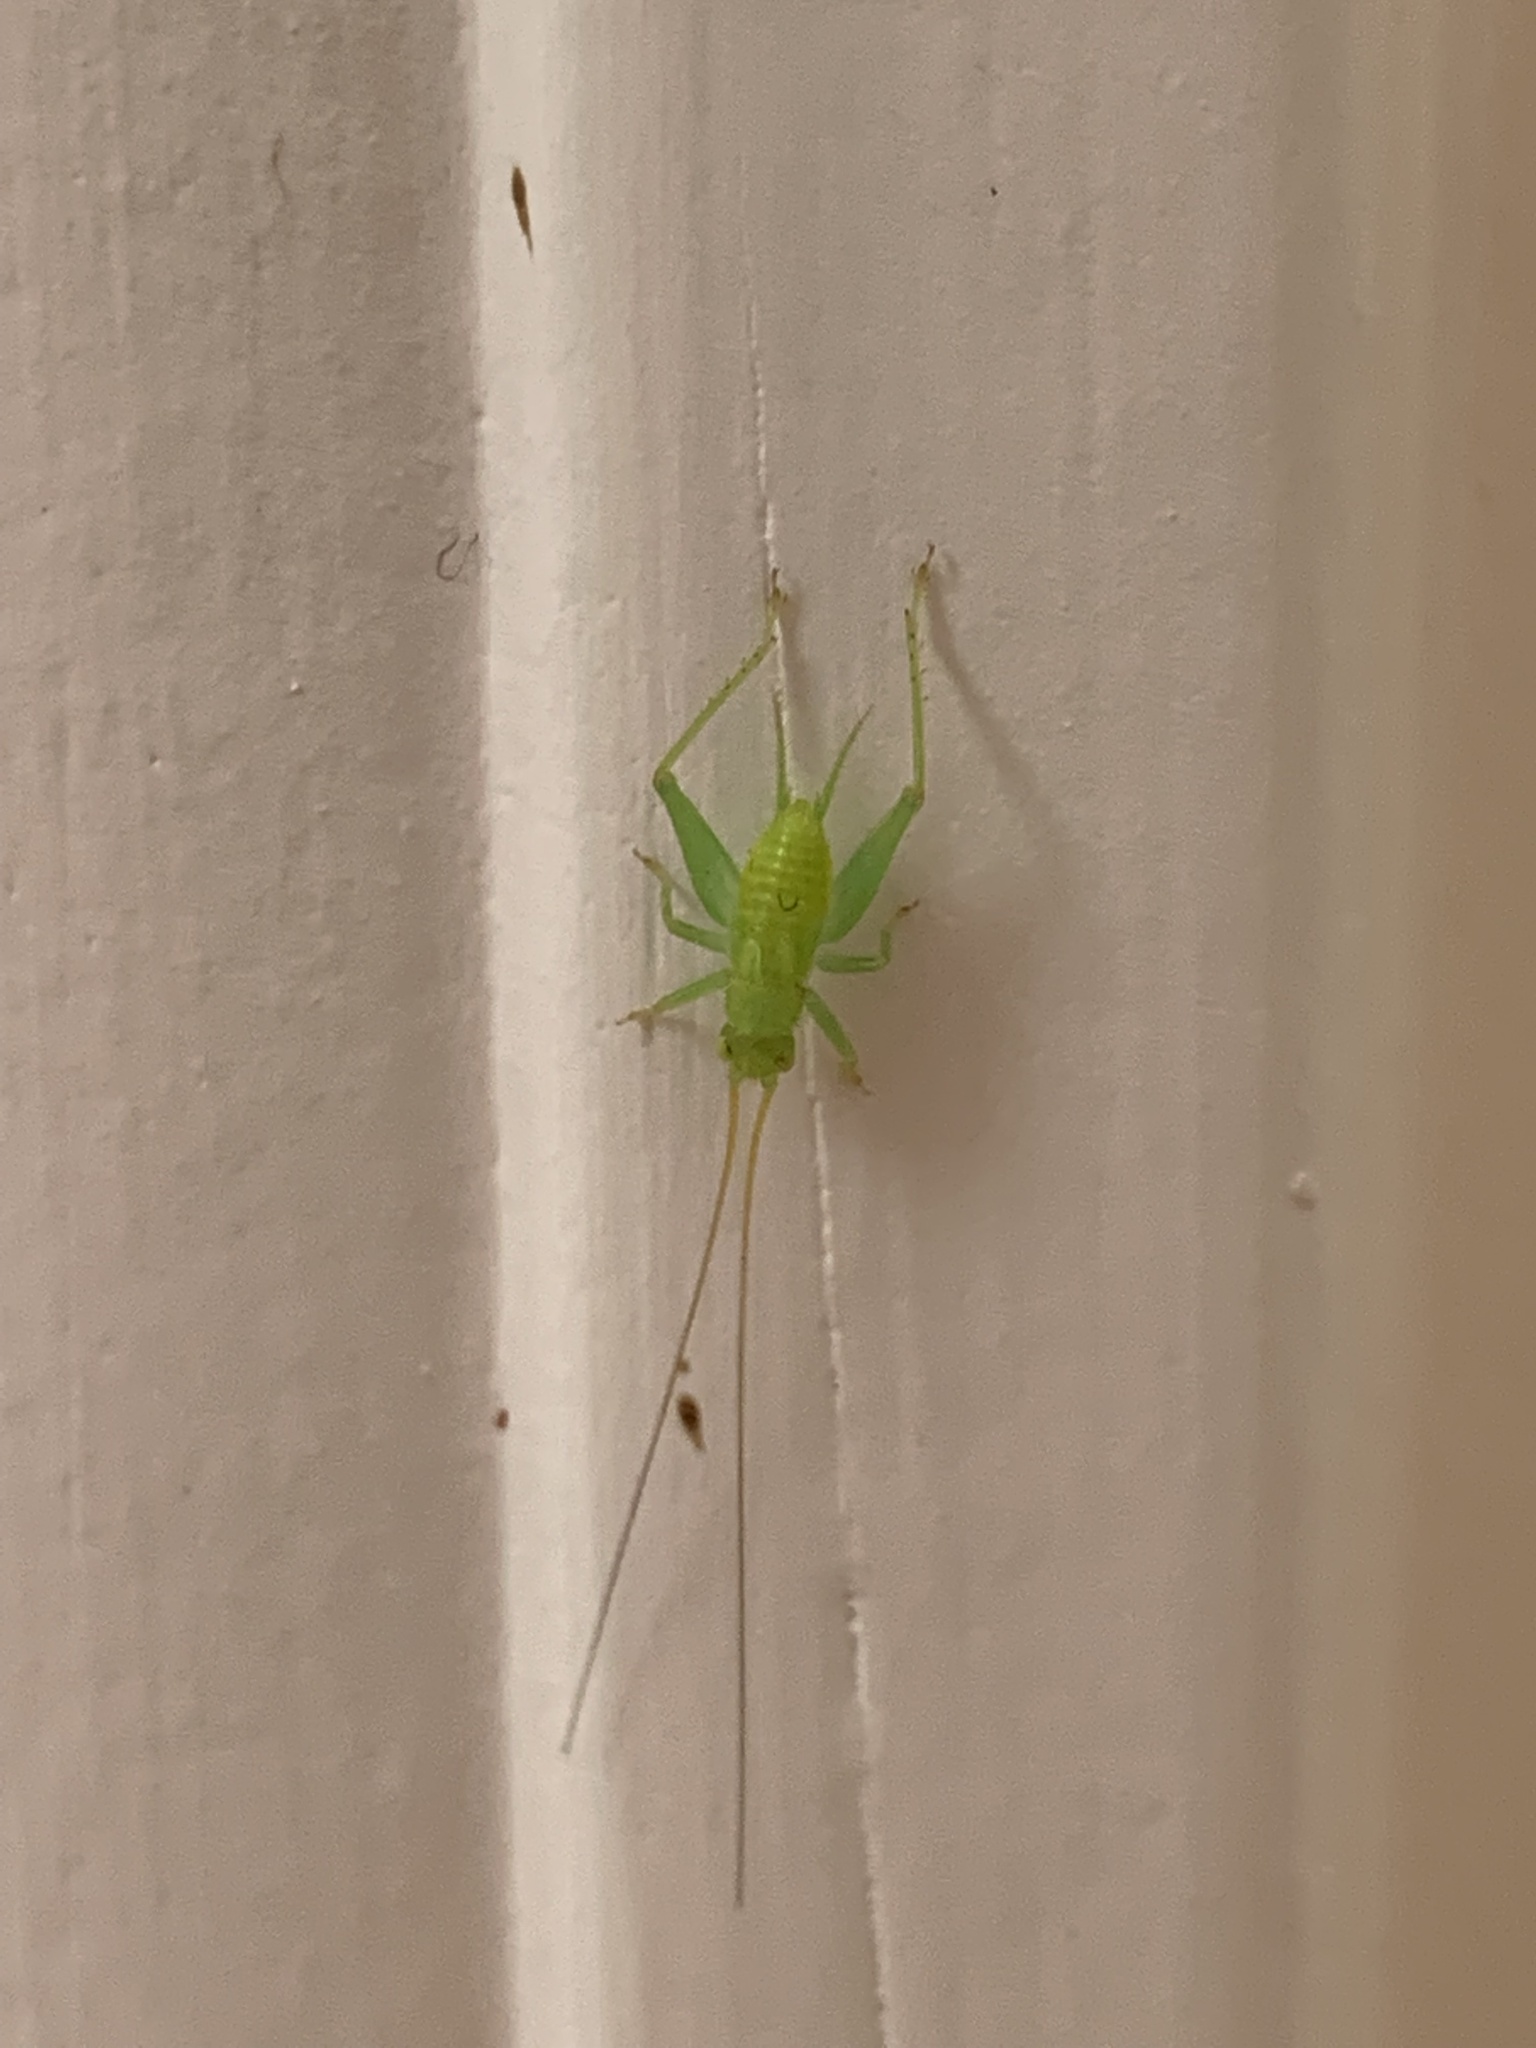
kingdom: Animalia
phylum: Arthropoda
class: Insecta
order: Orthoptera
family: Trigonidiidae
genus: Cyrtoxipha
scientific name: Cyrtoxipha columbiana
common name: Columbian trig
